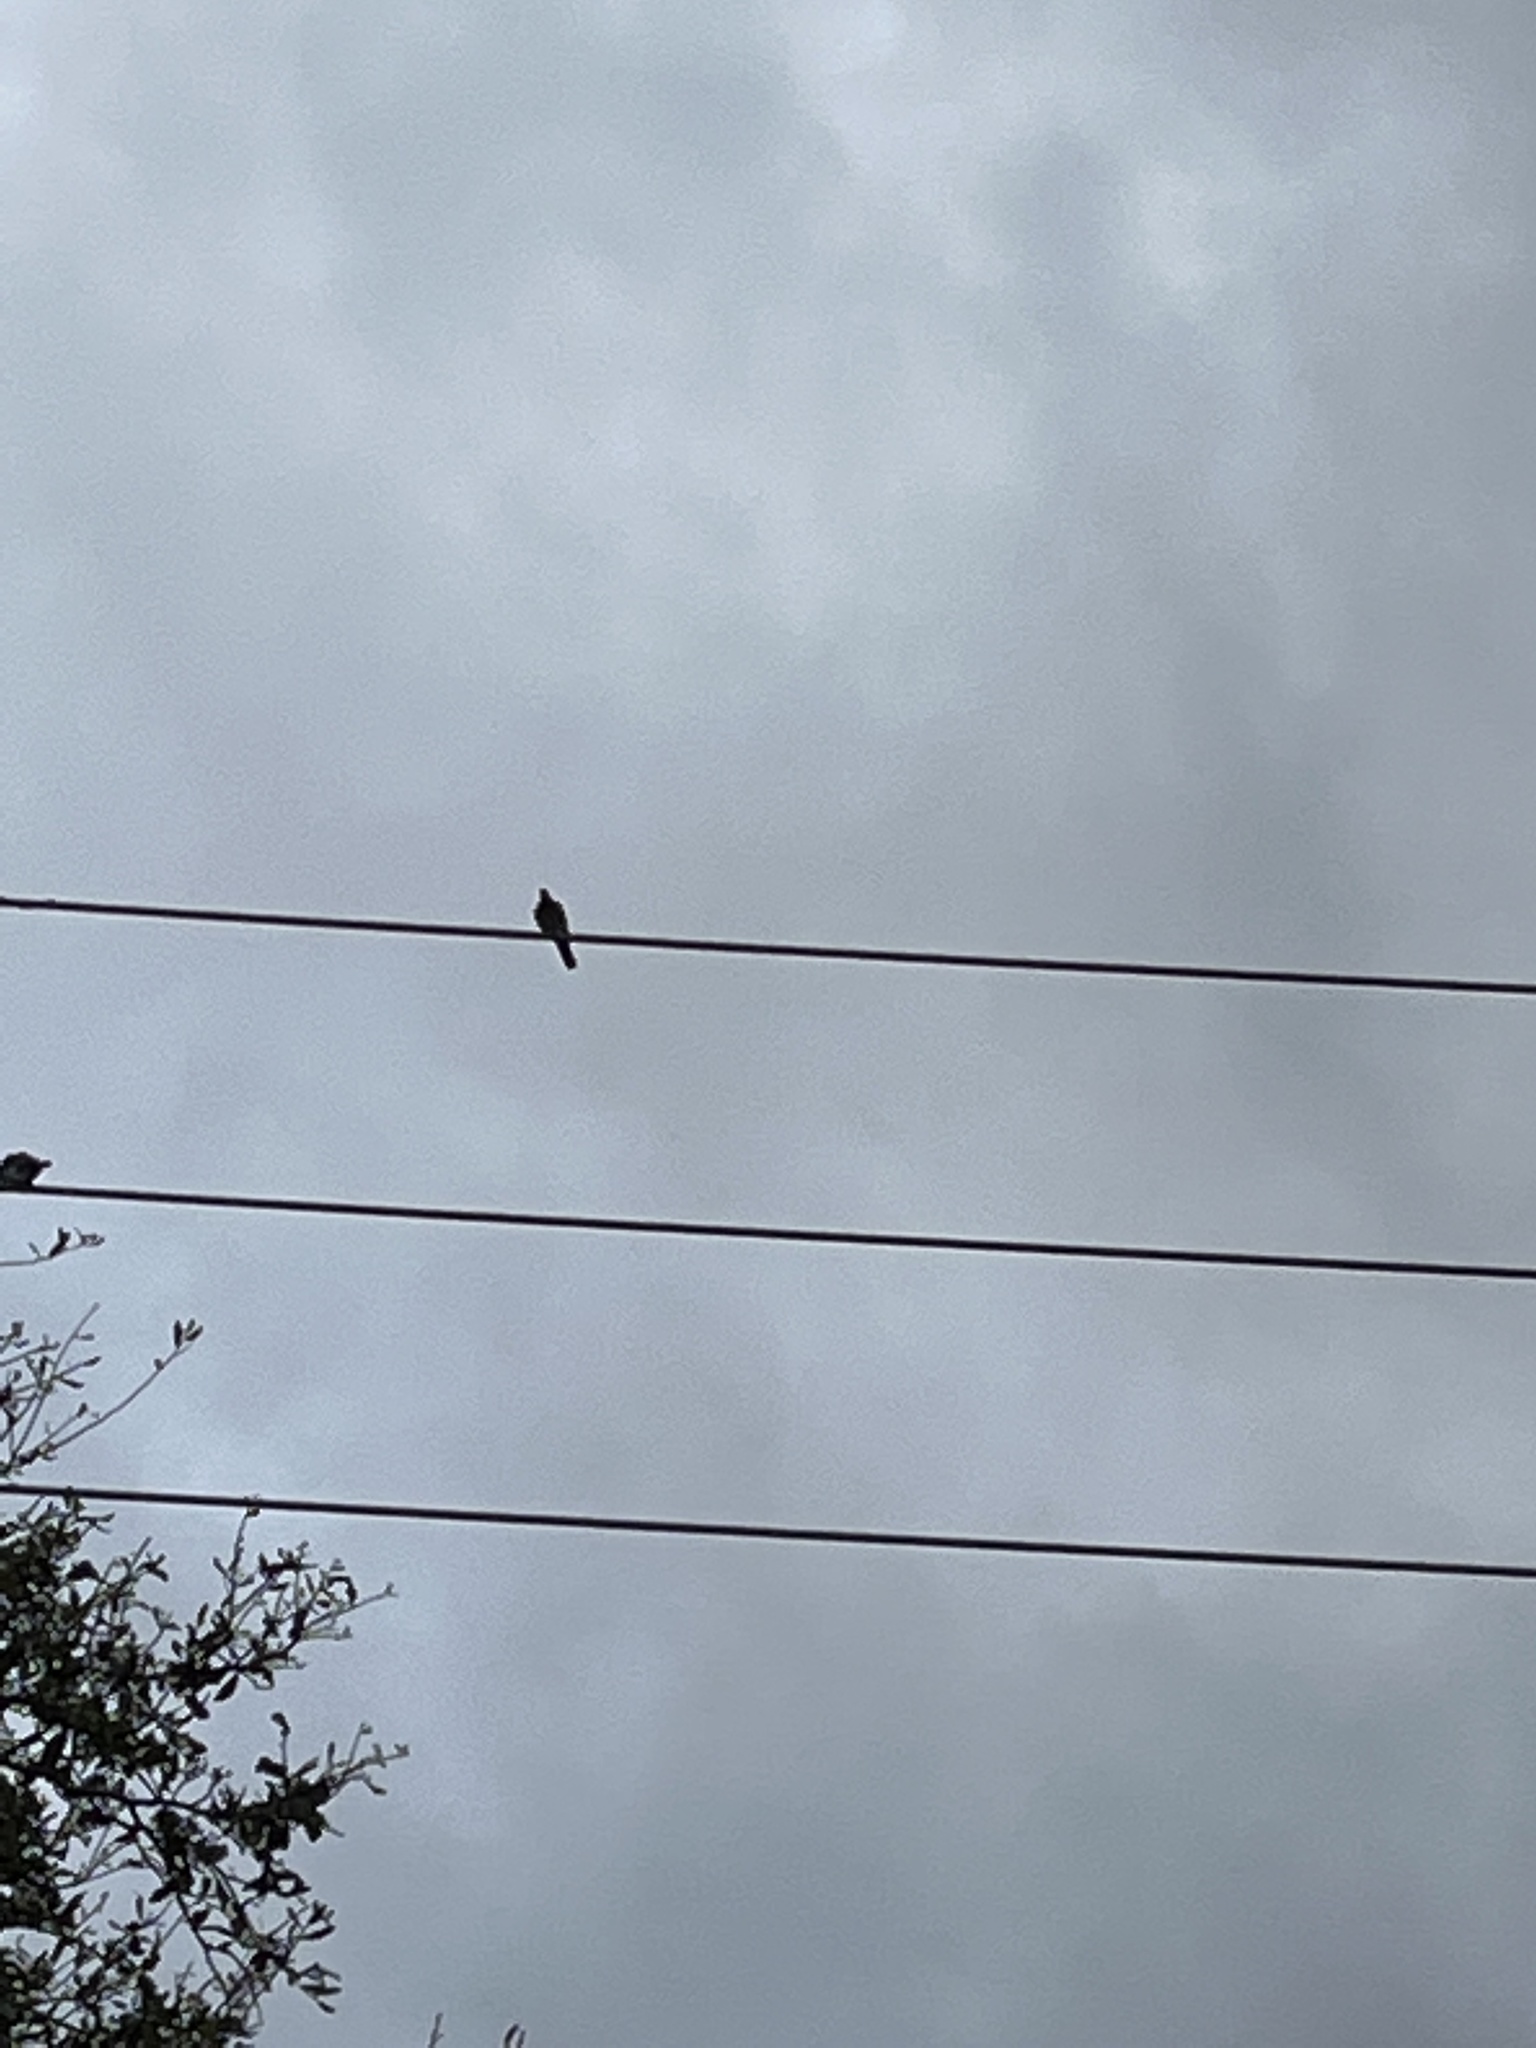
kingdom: Animalia
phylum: Chordata
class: Aves
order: Columbiformes
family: Columbidae
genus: Streptopelia
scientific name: Streptopelia decaocto
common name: Eurasian collared dove
